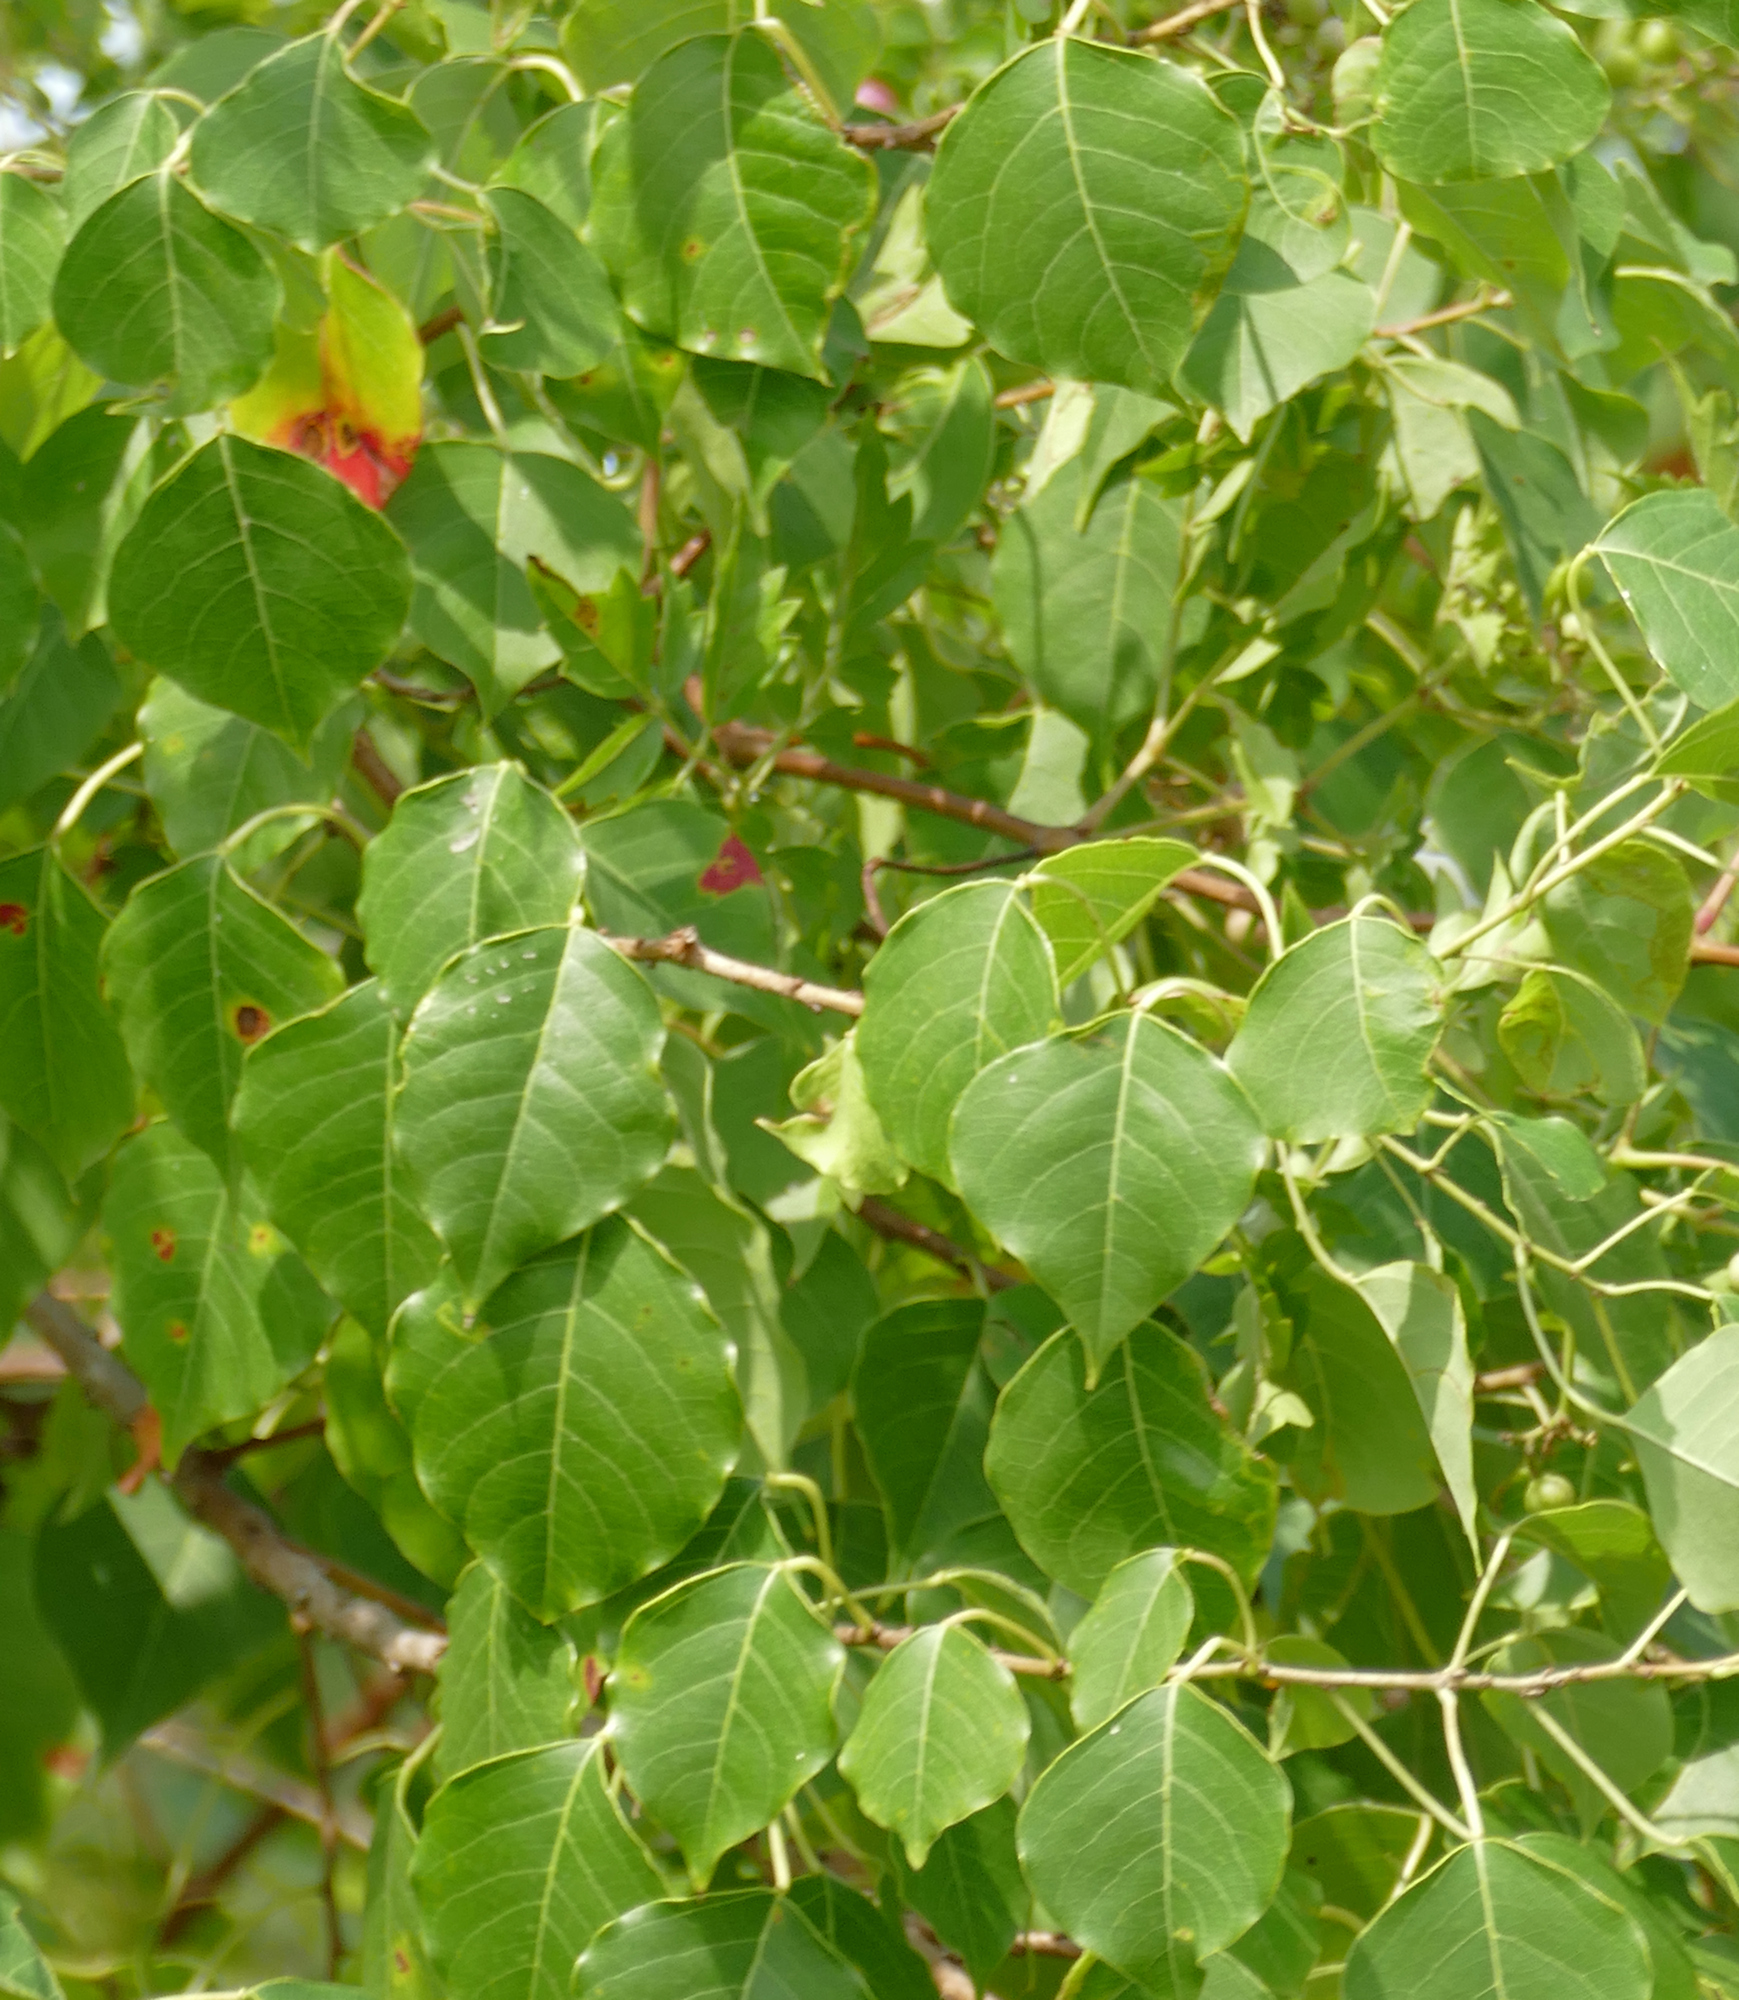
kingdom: Plantae
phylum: Tracheophyta
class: Magnoliopsida
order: Malpighiales
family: Euphorbiaceae
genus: Triadica
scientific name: Triadica sebifera
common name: Chinese tallow
